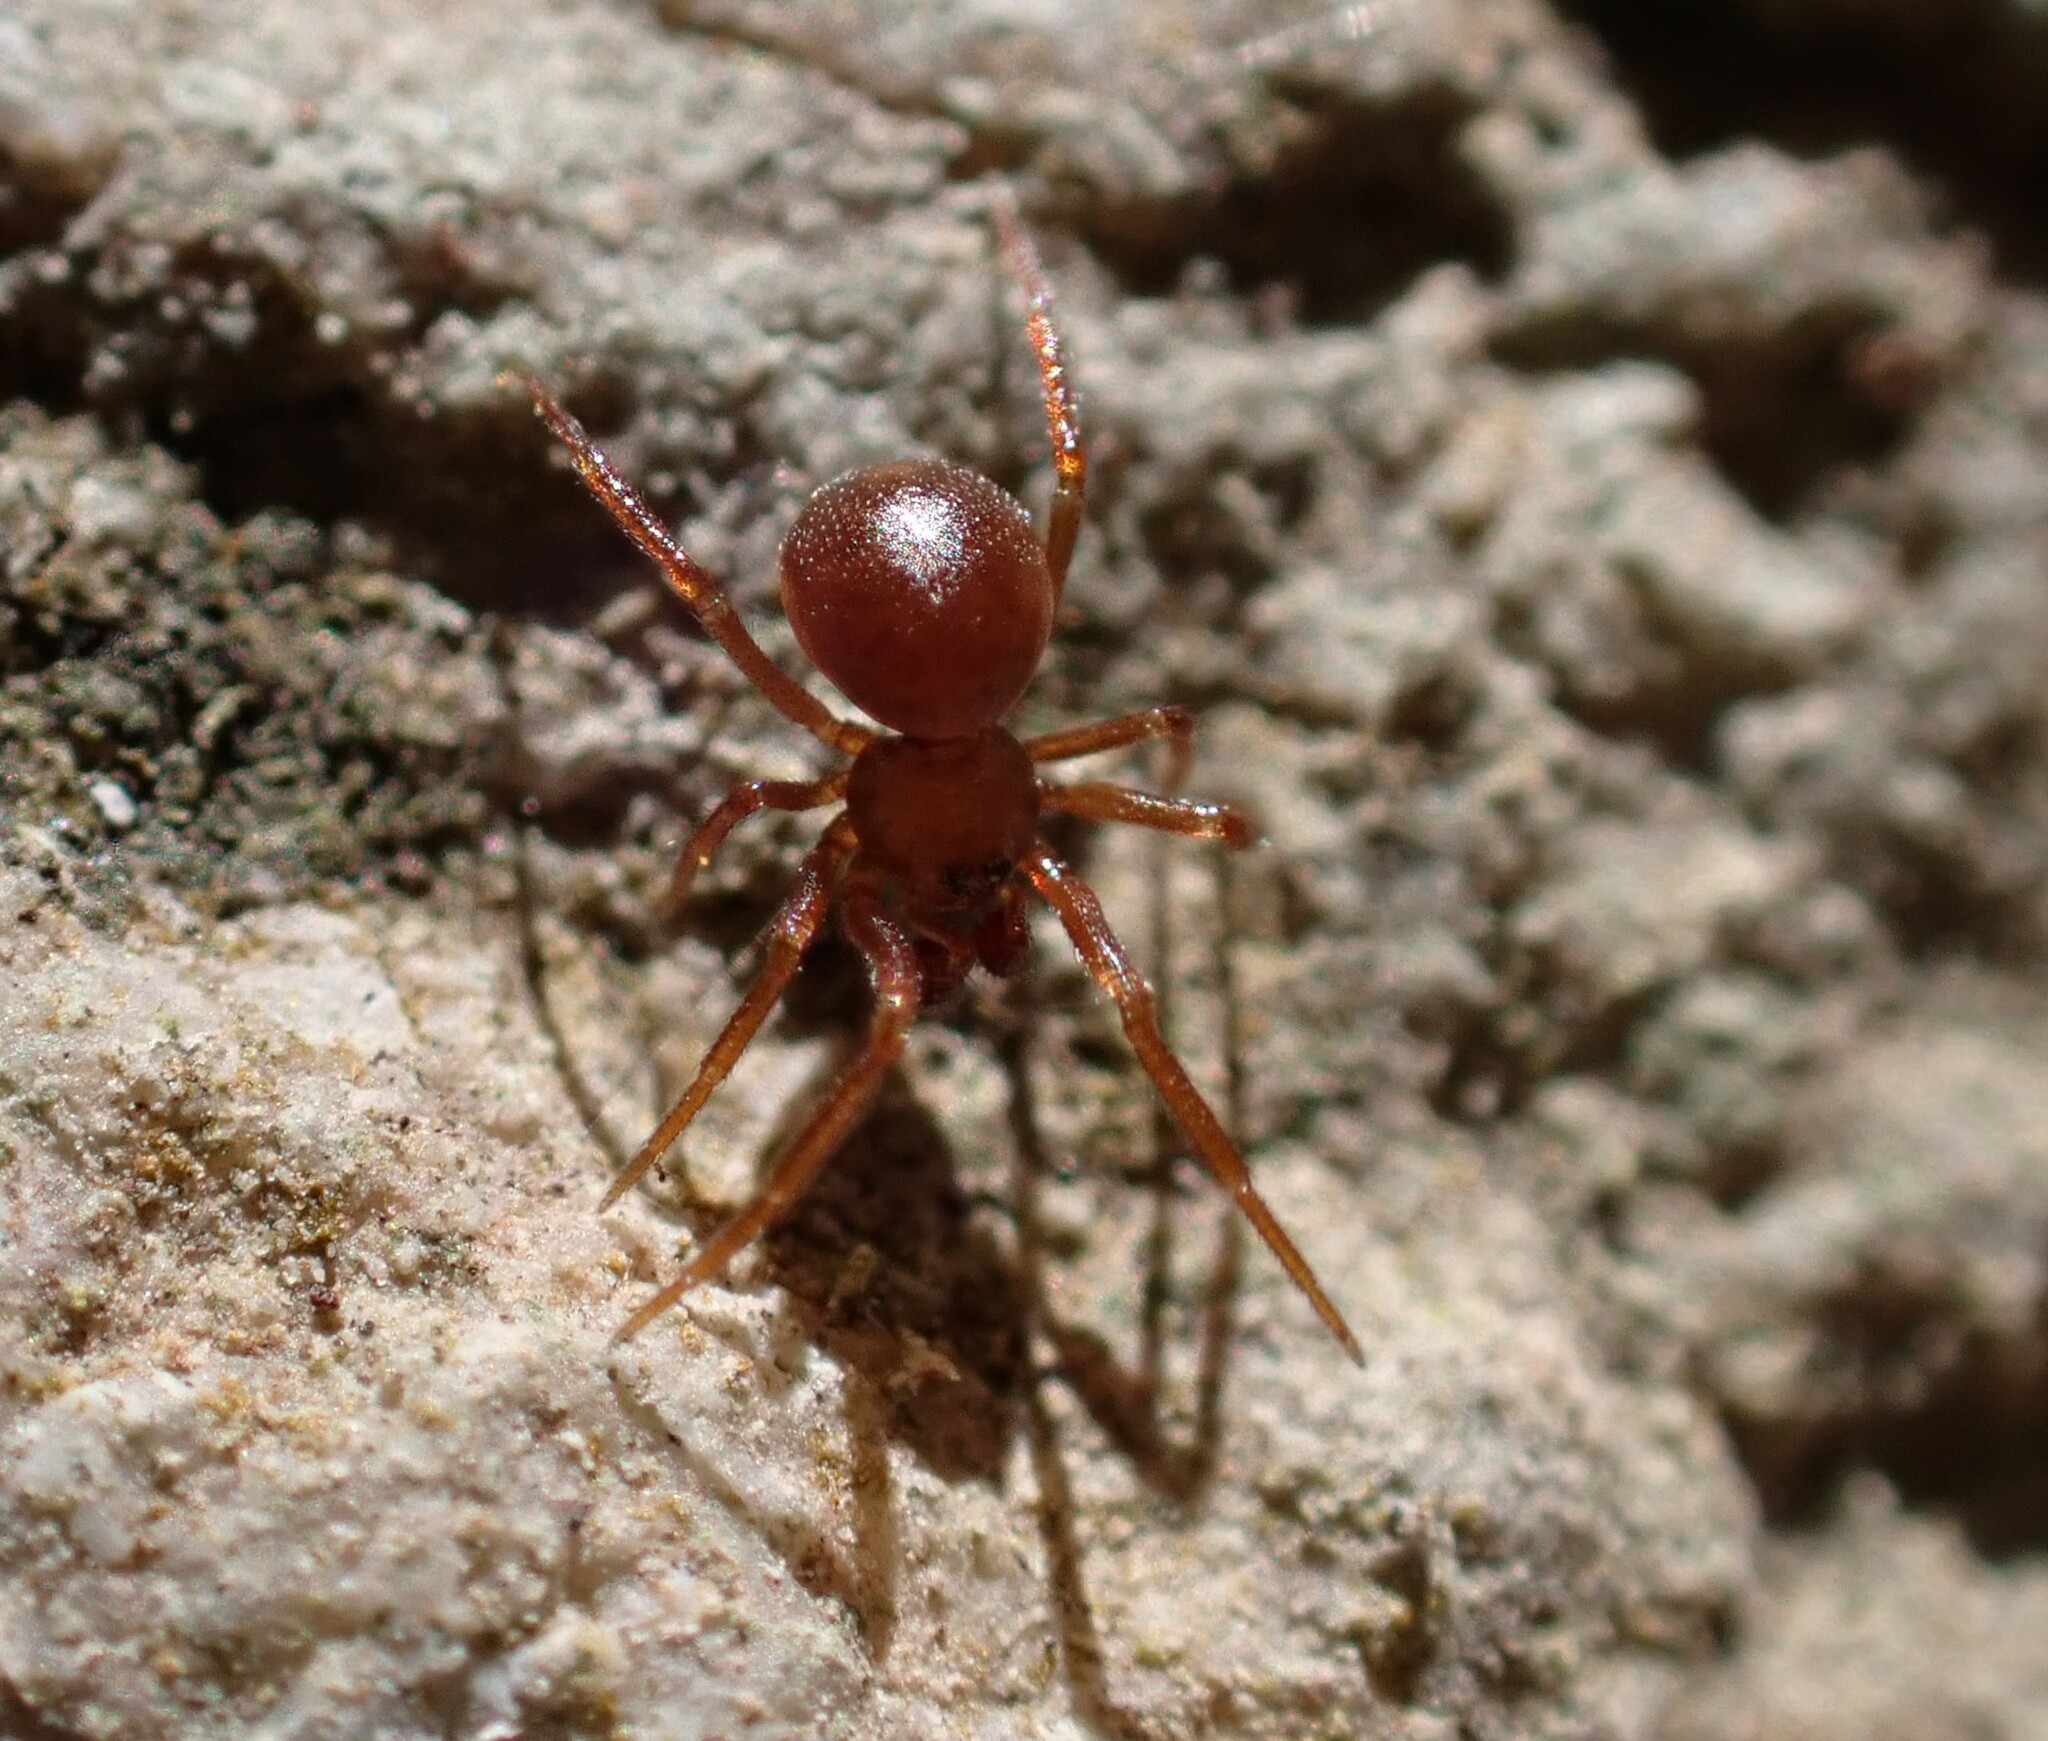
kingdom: Animalia
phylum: Arthropoda
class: Arachnida
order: Araneae
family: Theridiidae
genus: Pholcomma
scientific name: Pholcomma gibbum
